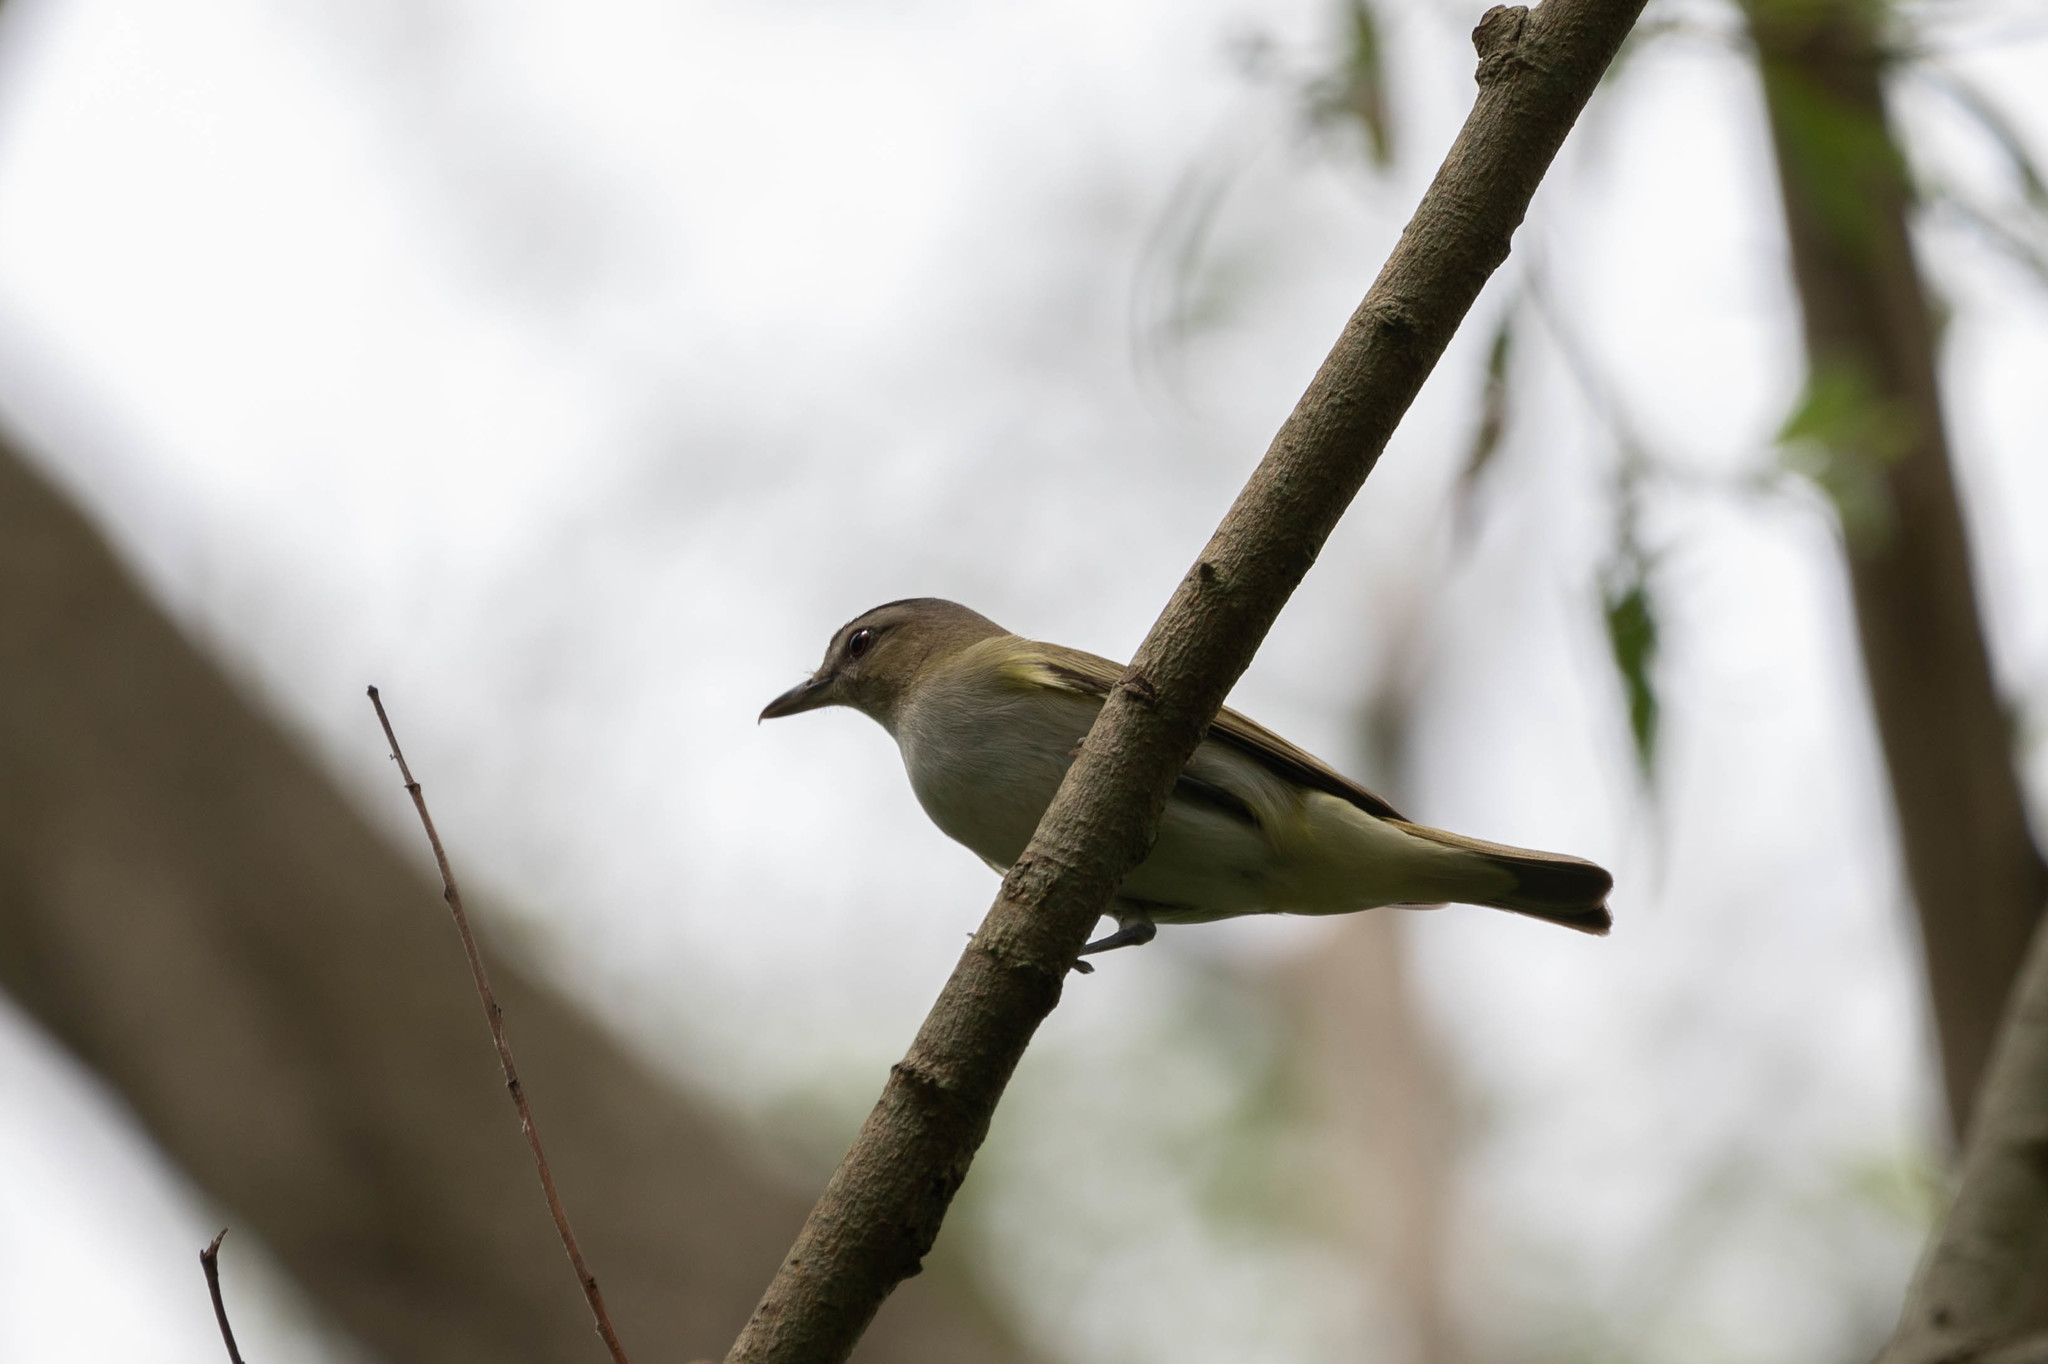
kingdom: Animalia
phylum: Chordata
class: Aves
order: Passeriformes
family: Vireonidae
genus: Vireo
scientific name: Vireo olivaceus
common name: Red-eyed vireo
